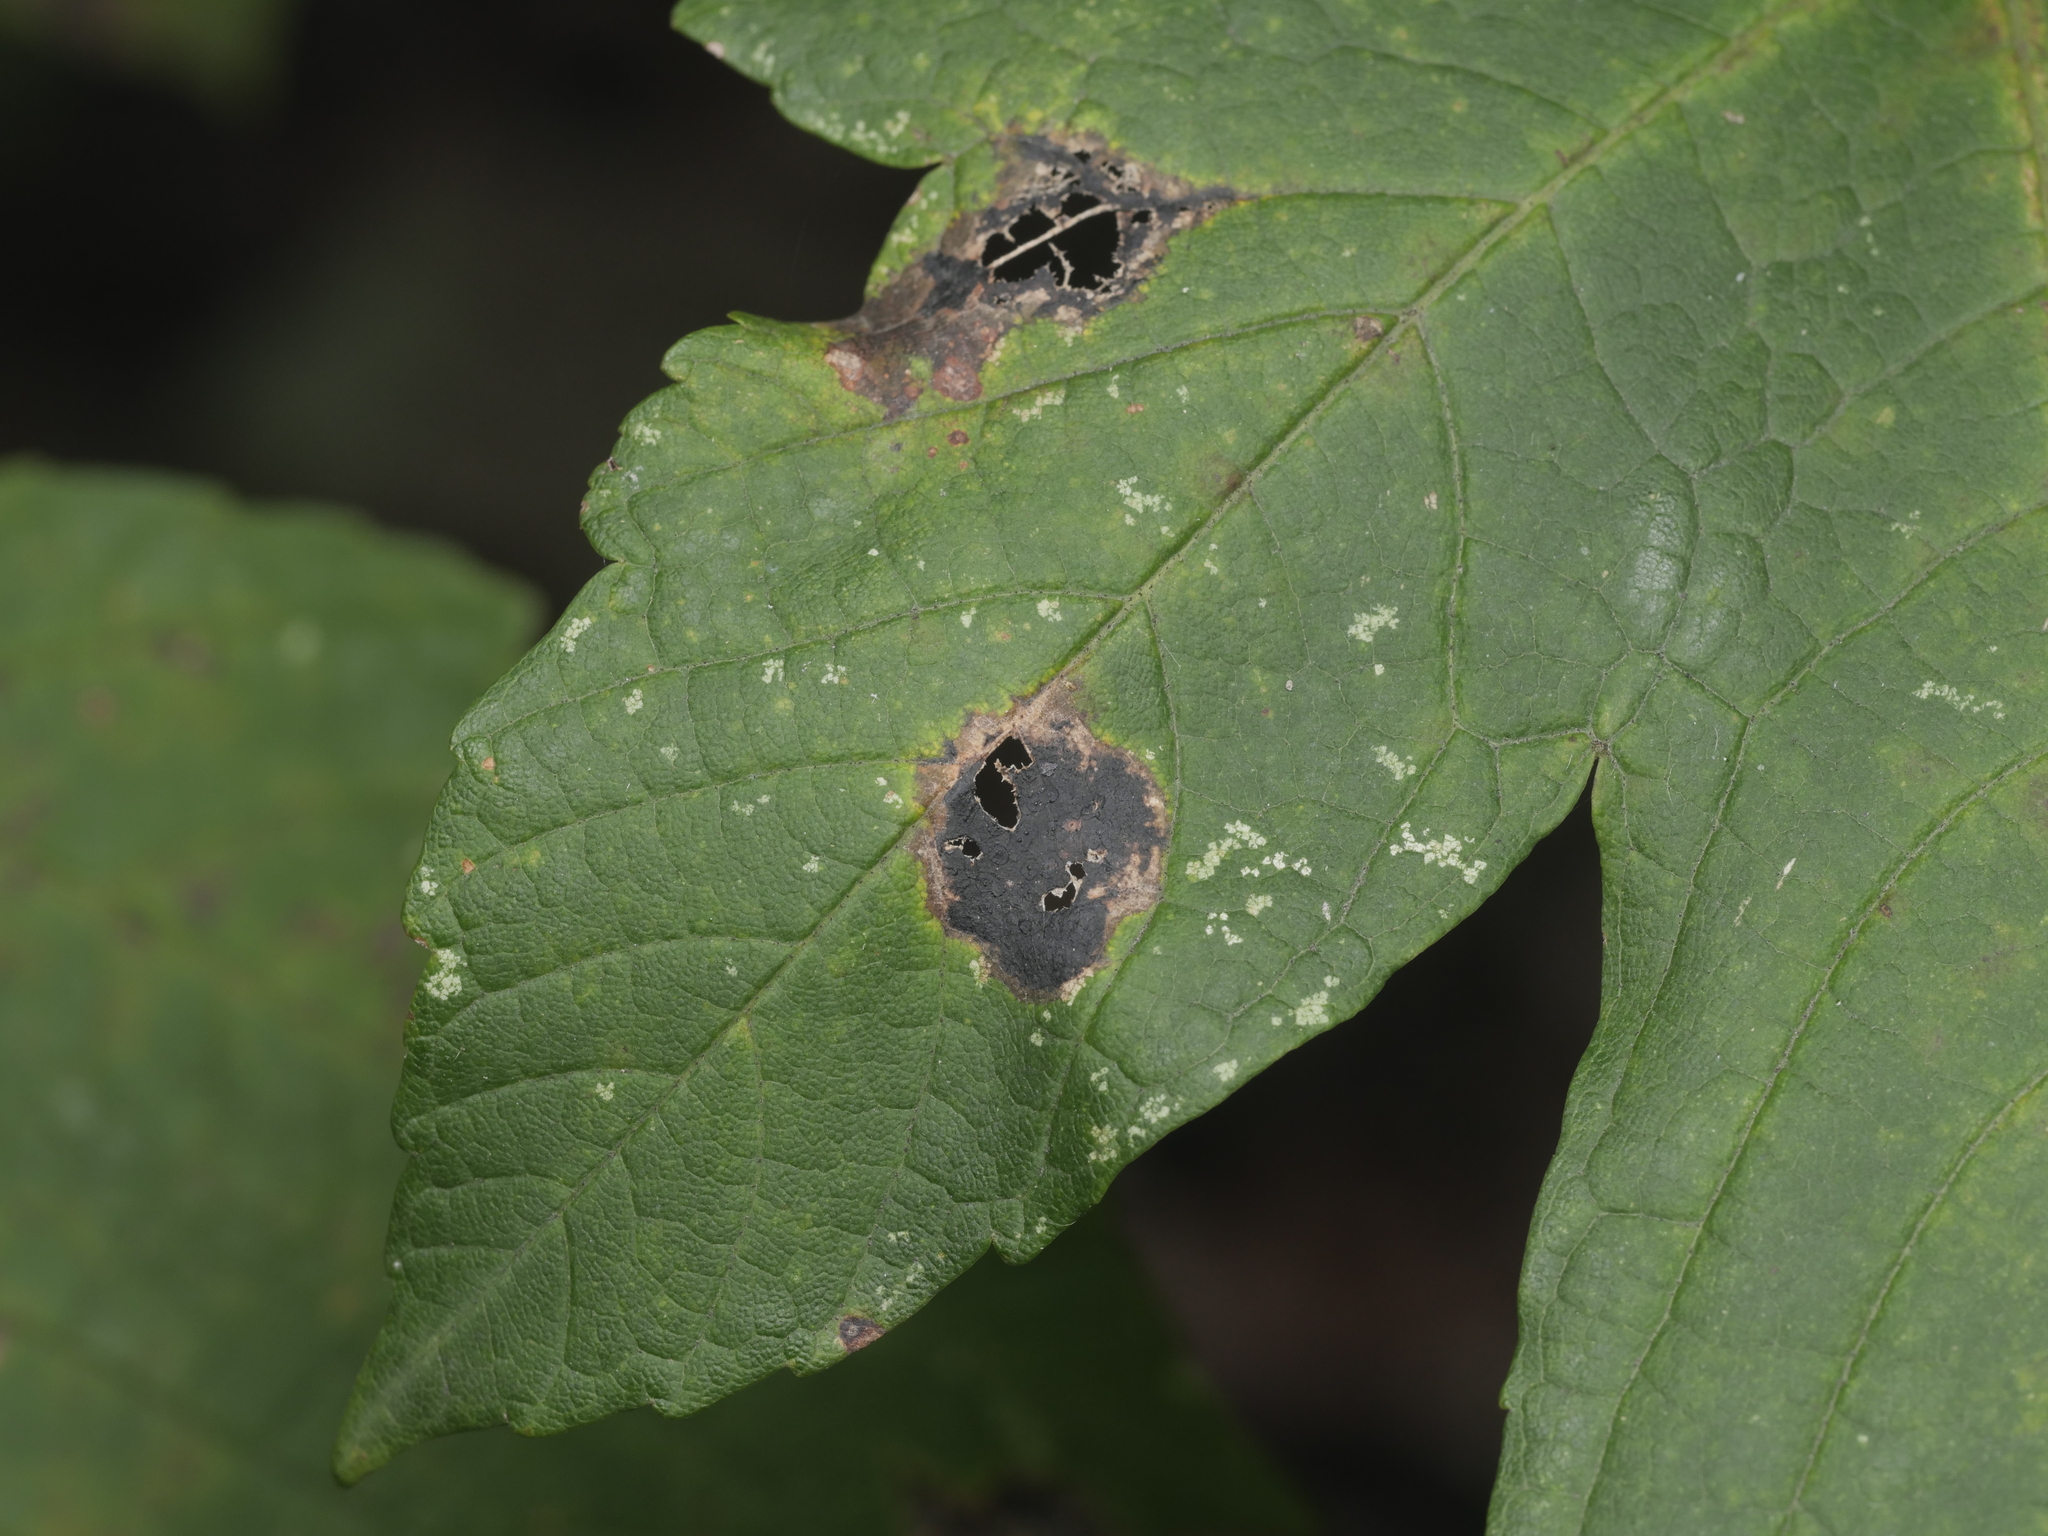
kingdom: Fungi
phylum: Ascomycota
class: Leotiomycetes
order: Rhytismatales
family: Rhytismataceae
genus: Rhytisma
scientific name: Rhytisma acerinum
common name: European tar spot
